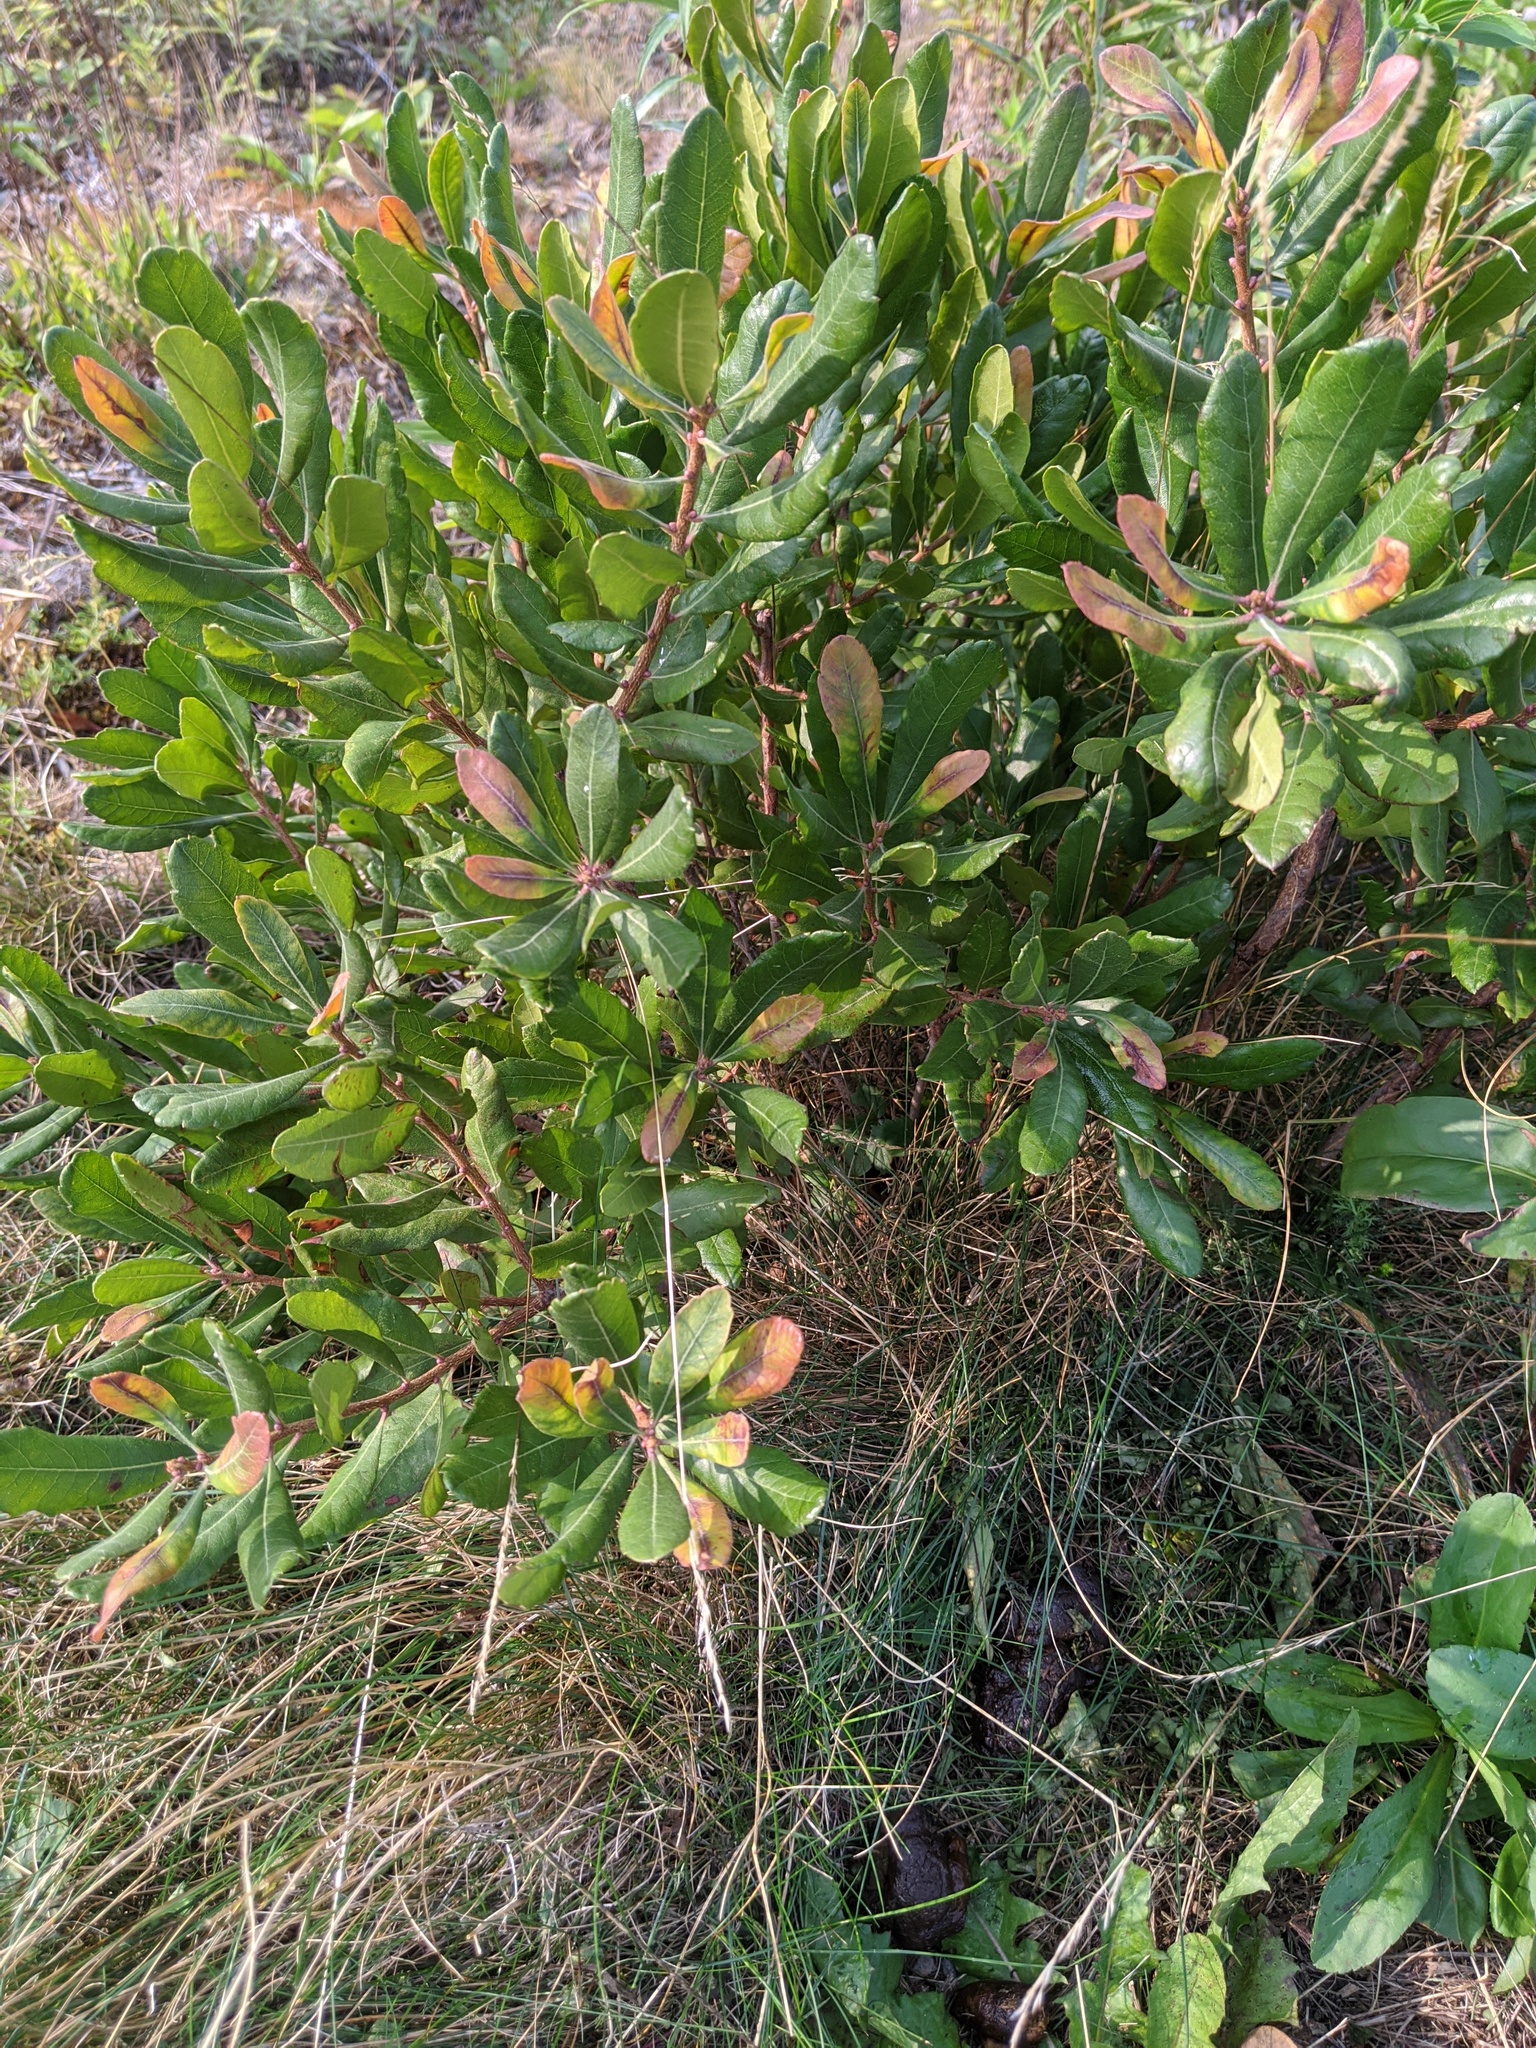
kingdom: Plantae
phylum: Tracheophyta
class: Magnoliopsida
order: Fagales
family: Myricaceae
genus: Morella
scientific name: Morella pensylvanica
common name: Northern bayberry
